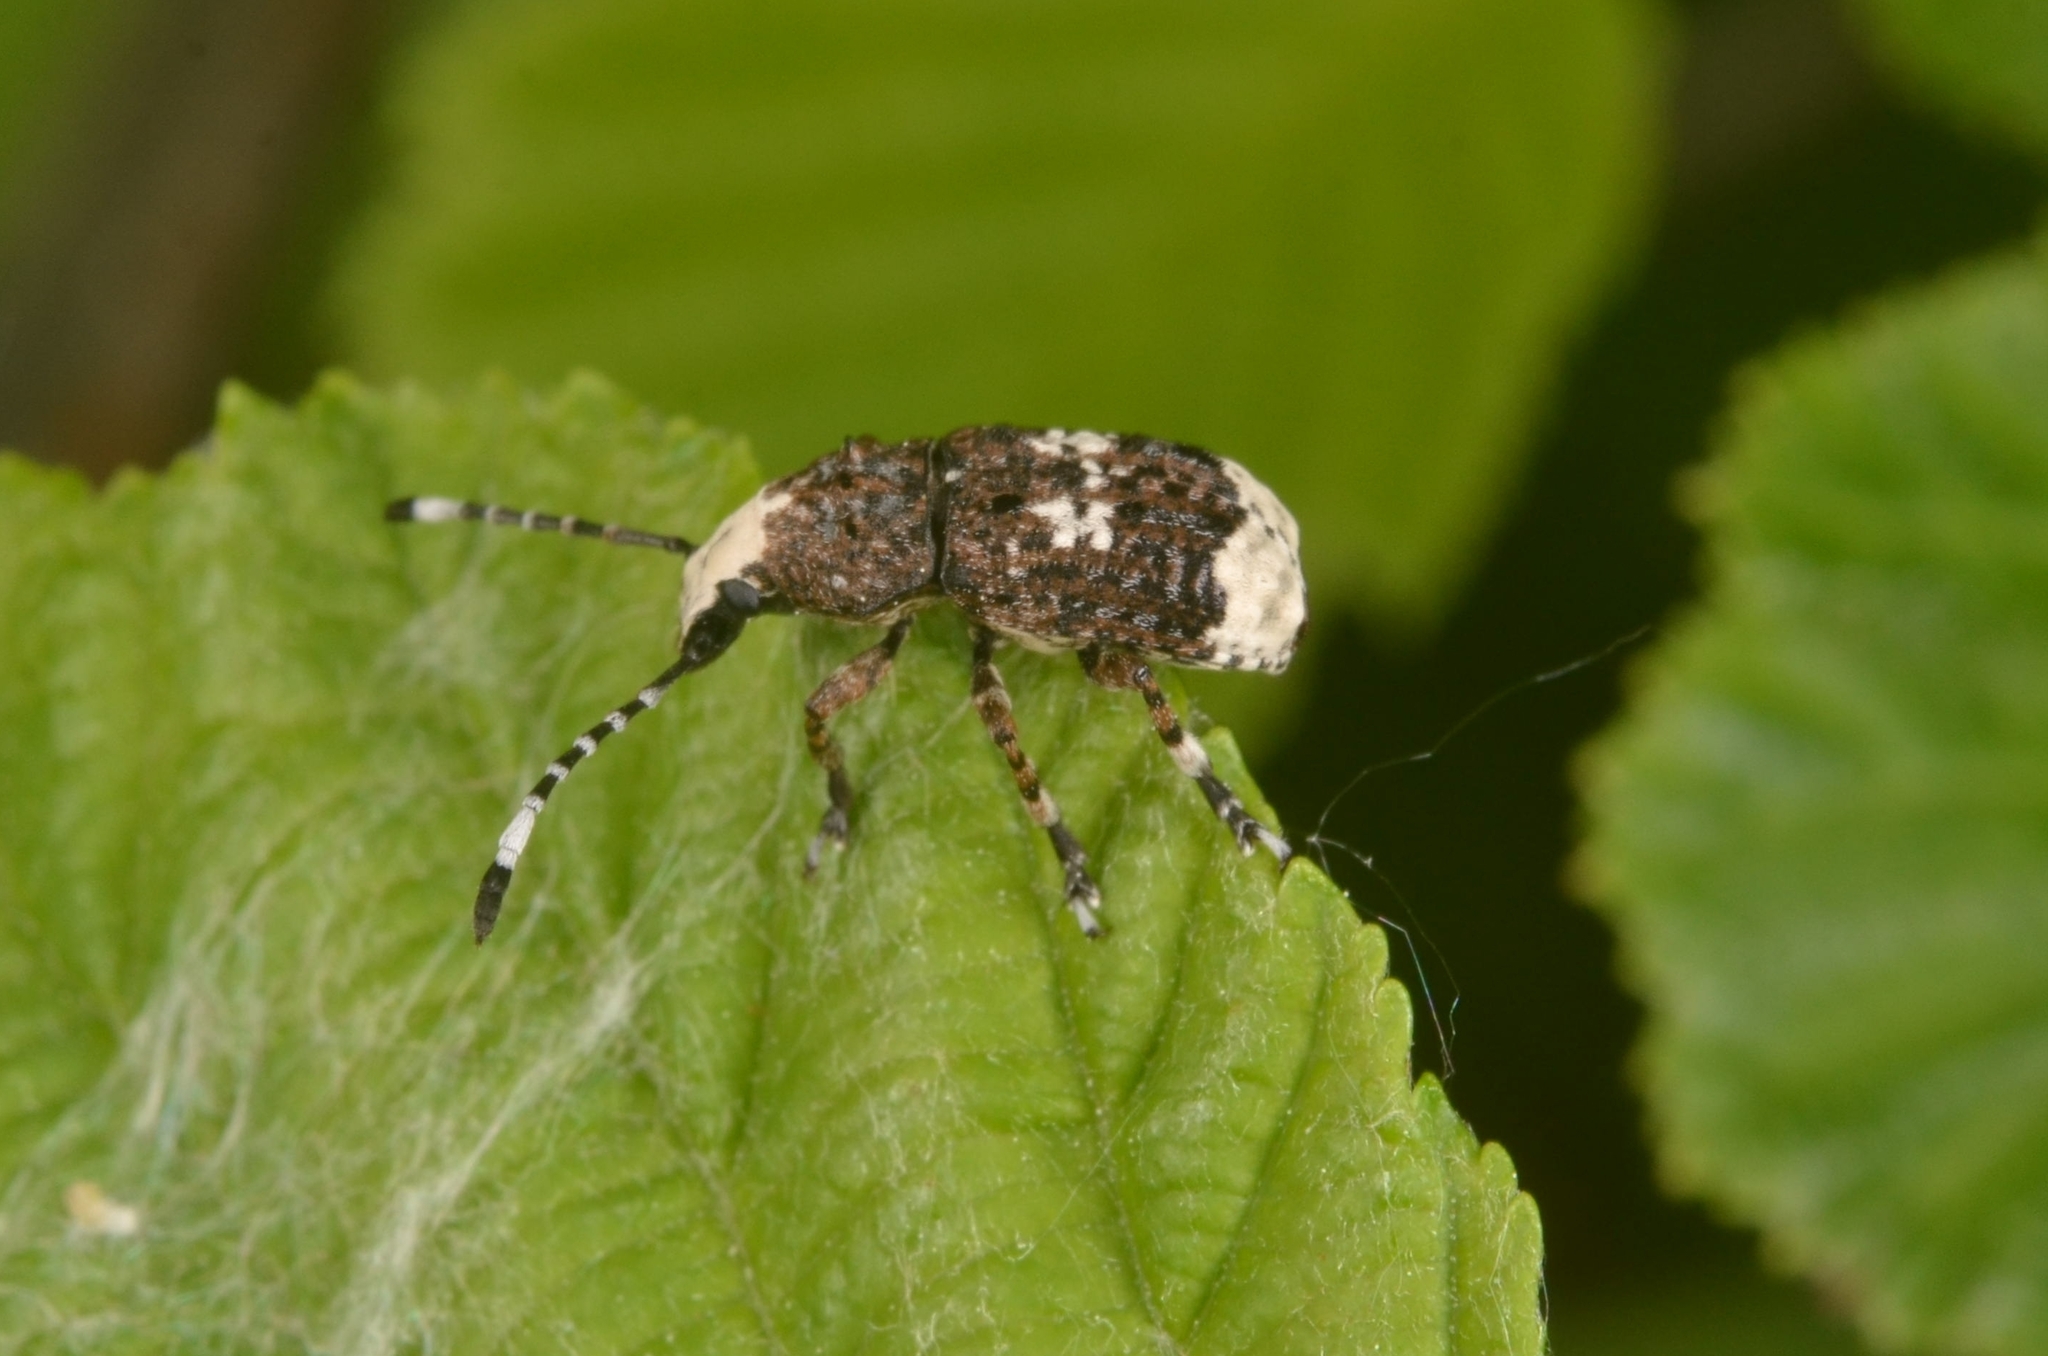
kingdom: Animalia
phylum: Arthropoda
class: Insecta
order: Coleoptera
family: Anthribidae
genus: Platystomos
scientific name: Platystomos albinus
